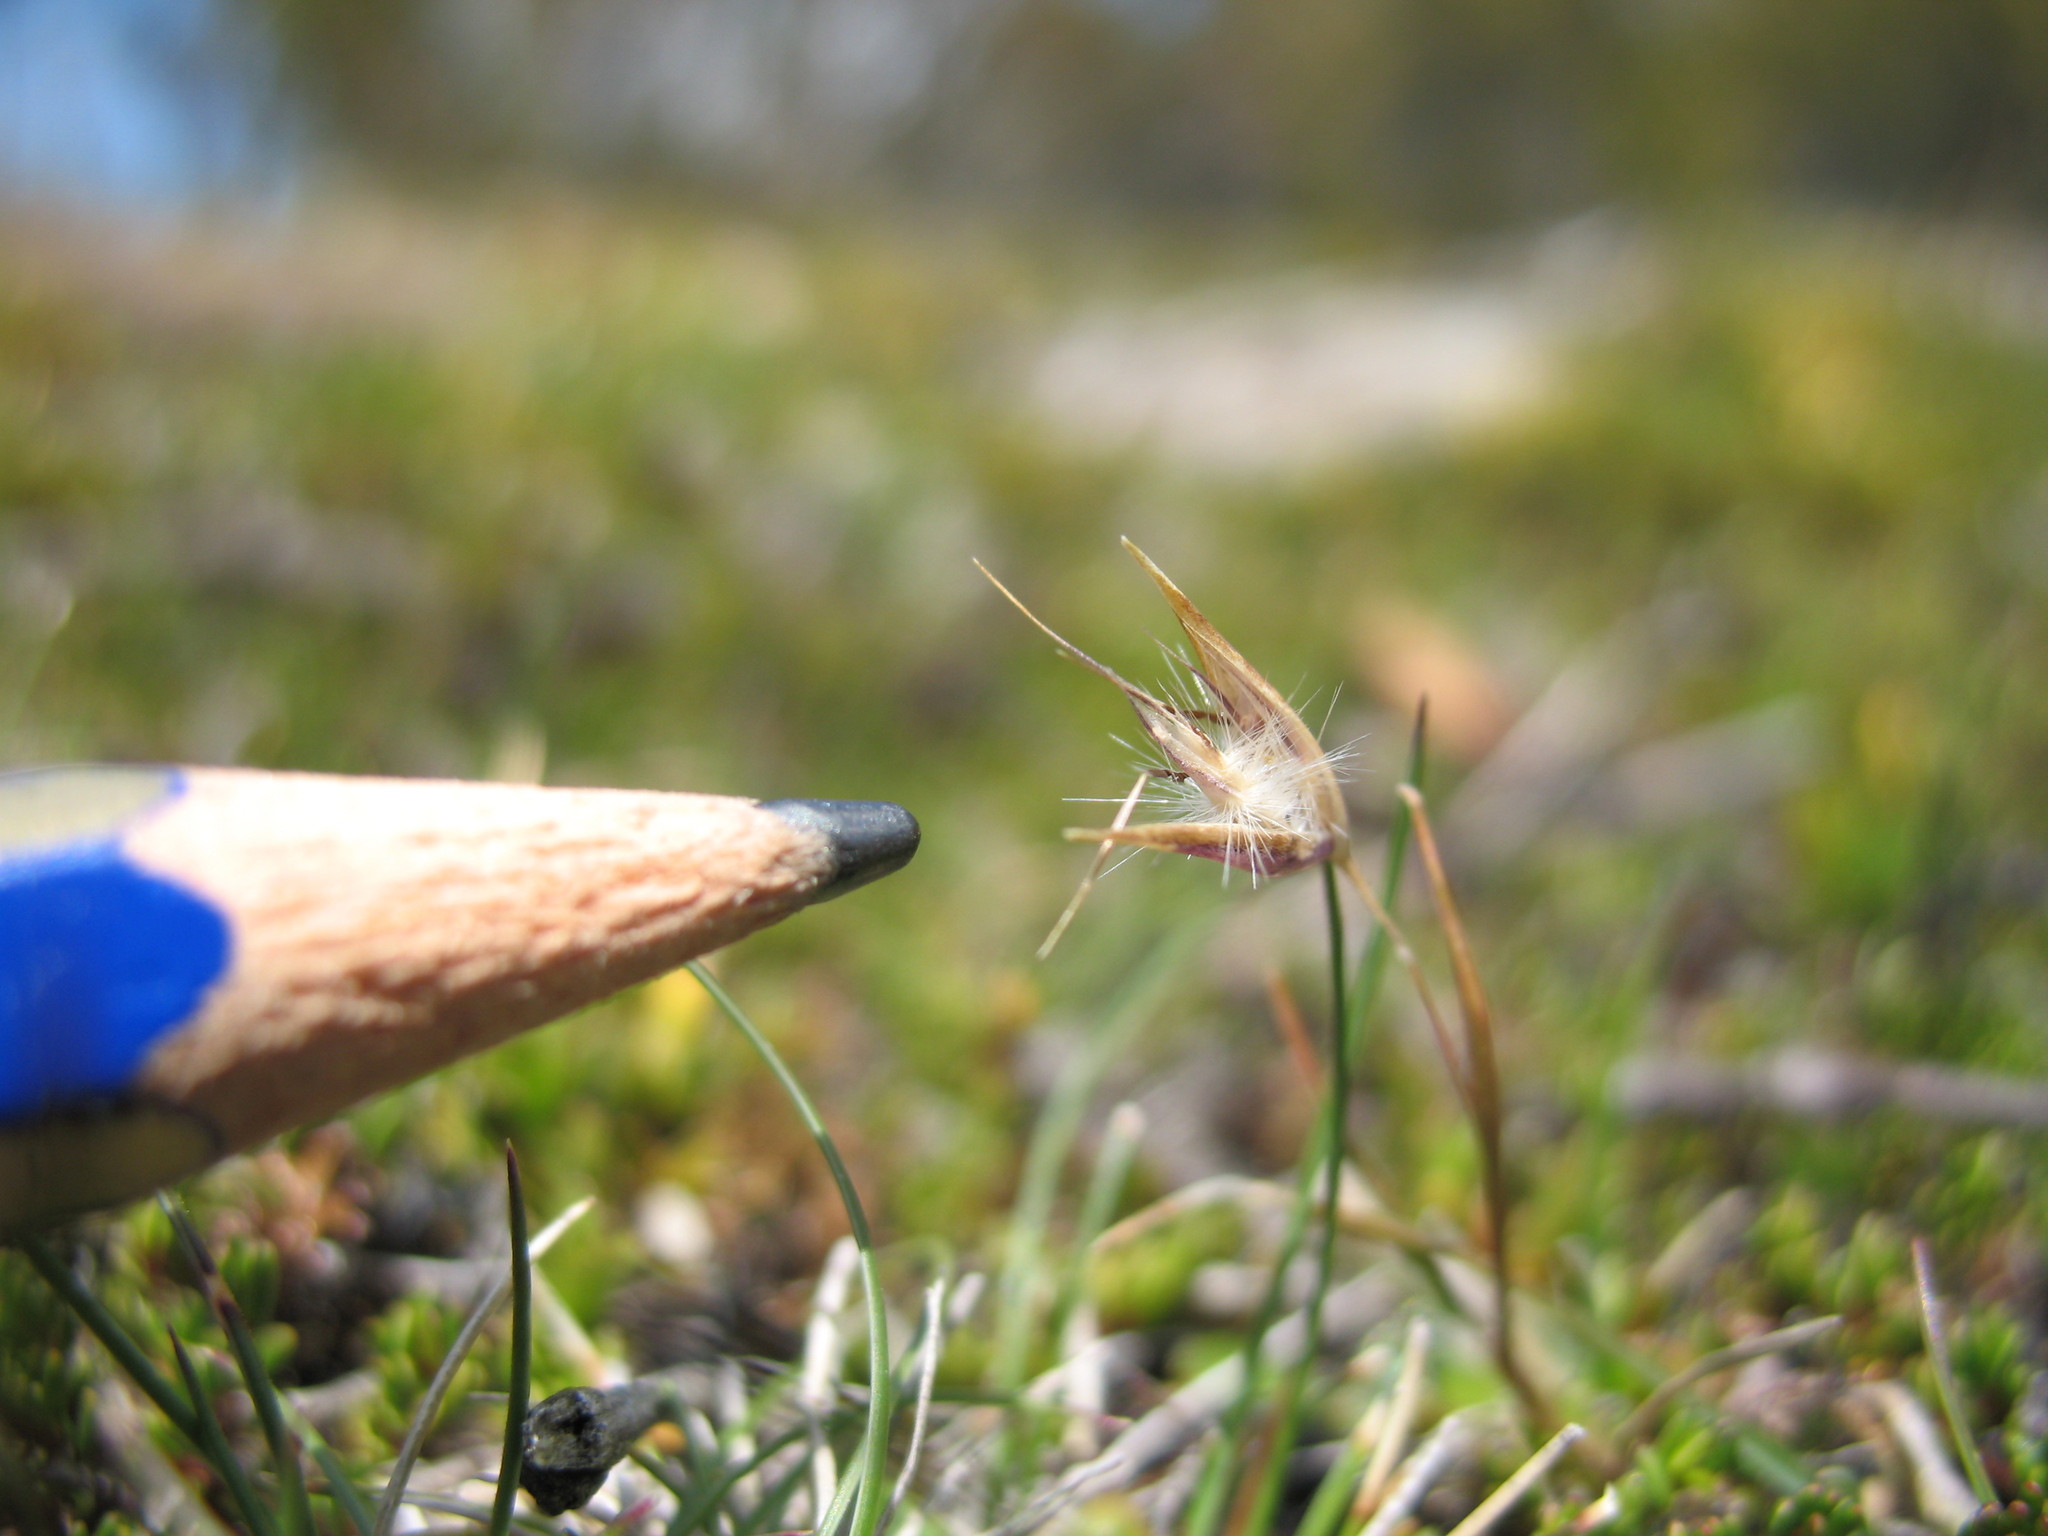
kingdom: Plantae
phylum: Tracheophyta
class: Liliopsida
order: Poales
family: Poaceae
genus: Rytidosperma
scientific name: Rytidosperma diemenicum
